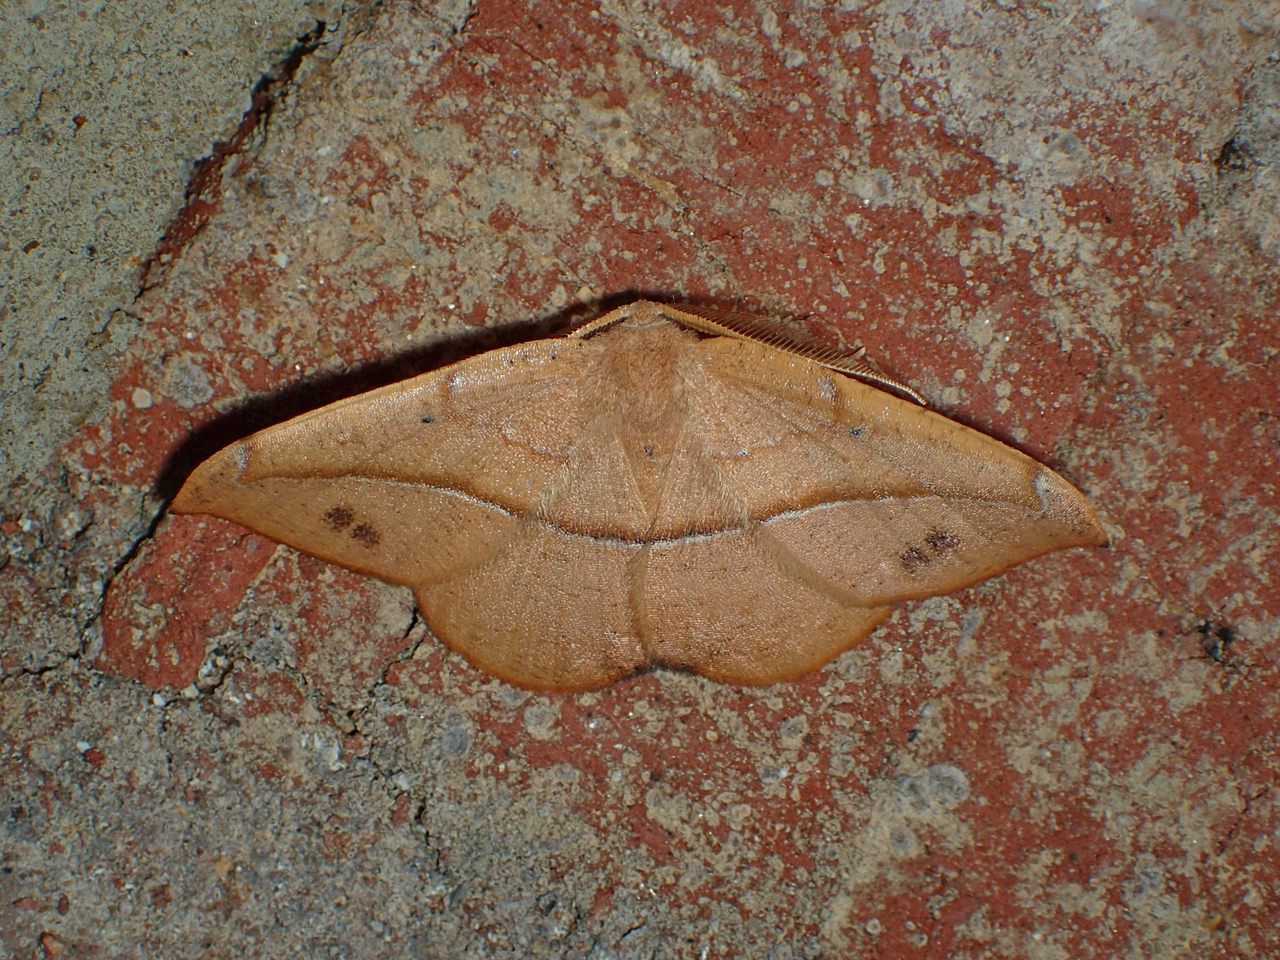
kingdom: Animalia
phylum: Arthropoda
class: Insecta
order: Lepidoptera
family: Geometridae
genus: Patalene
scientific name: Patalene olyzonaria
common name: Juniper geometer moth
